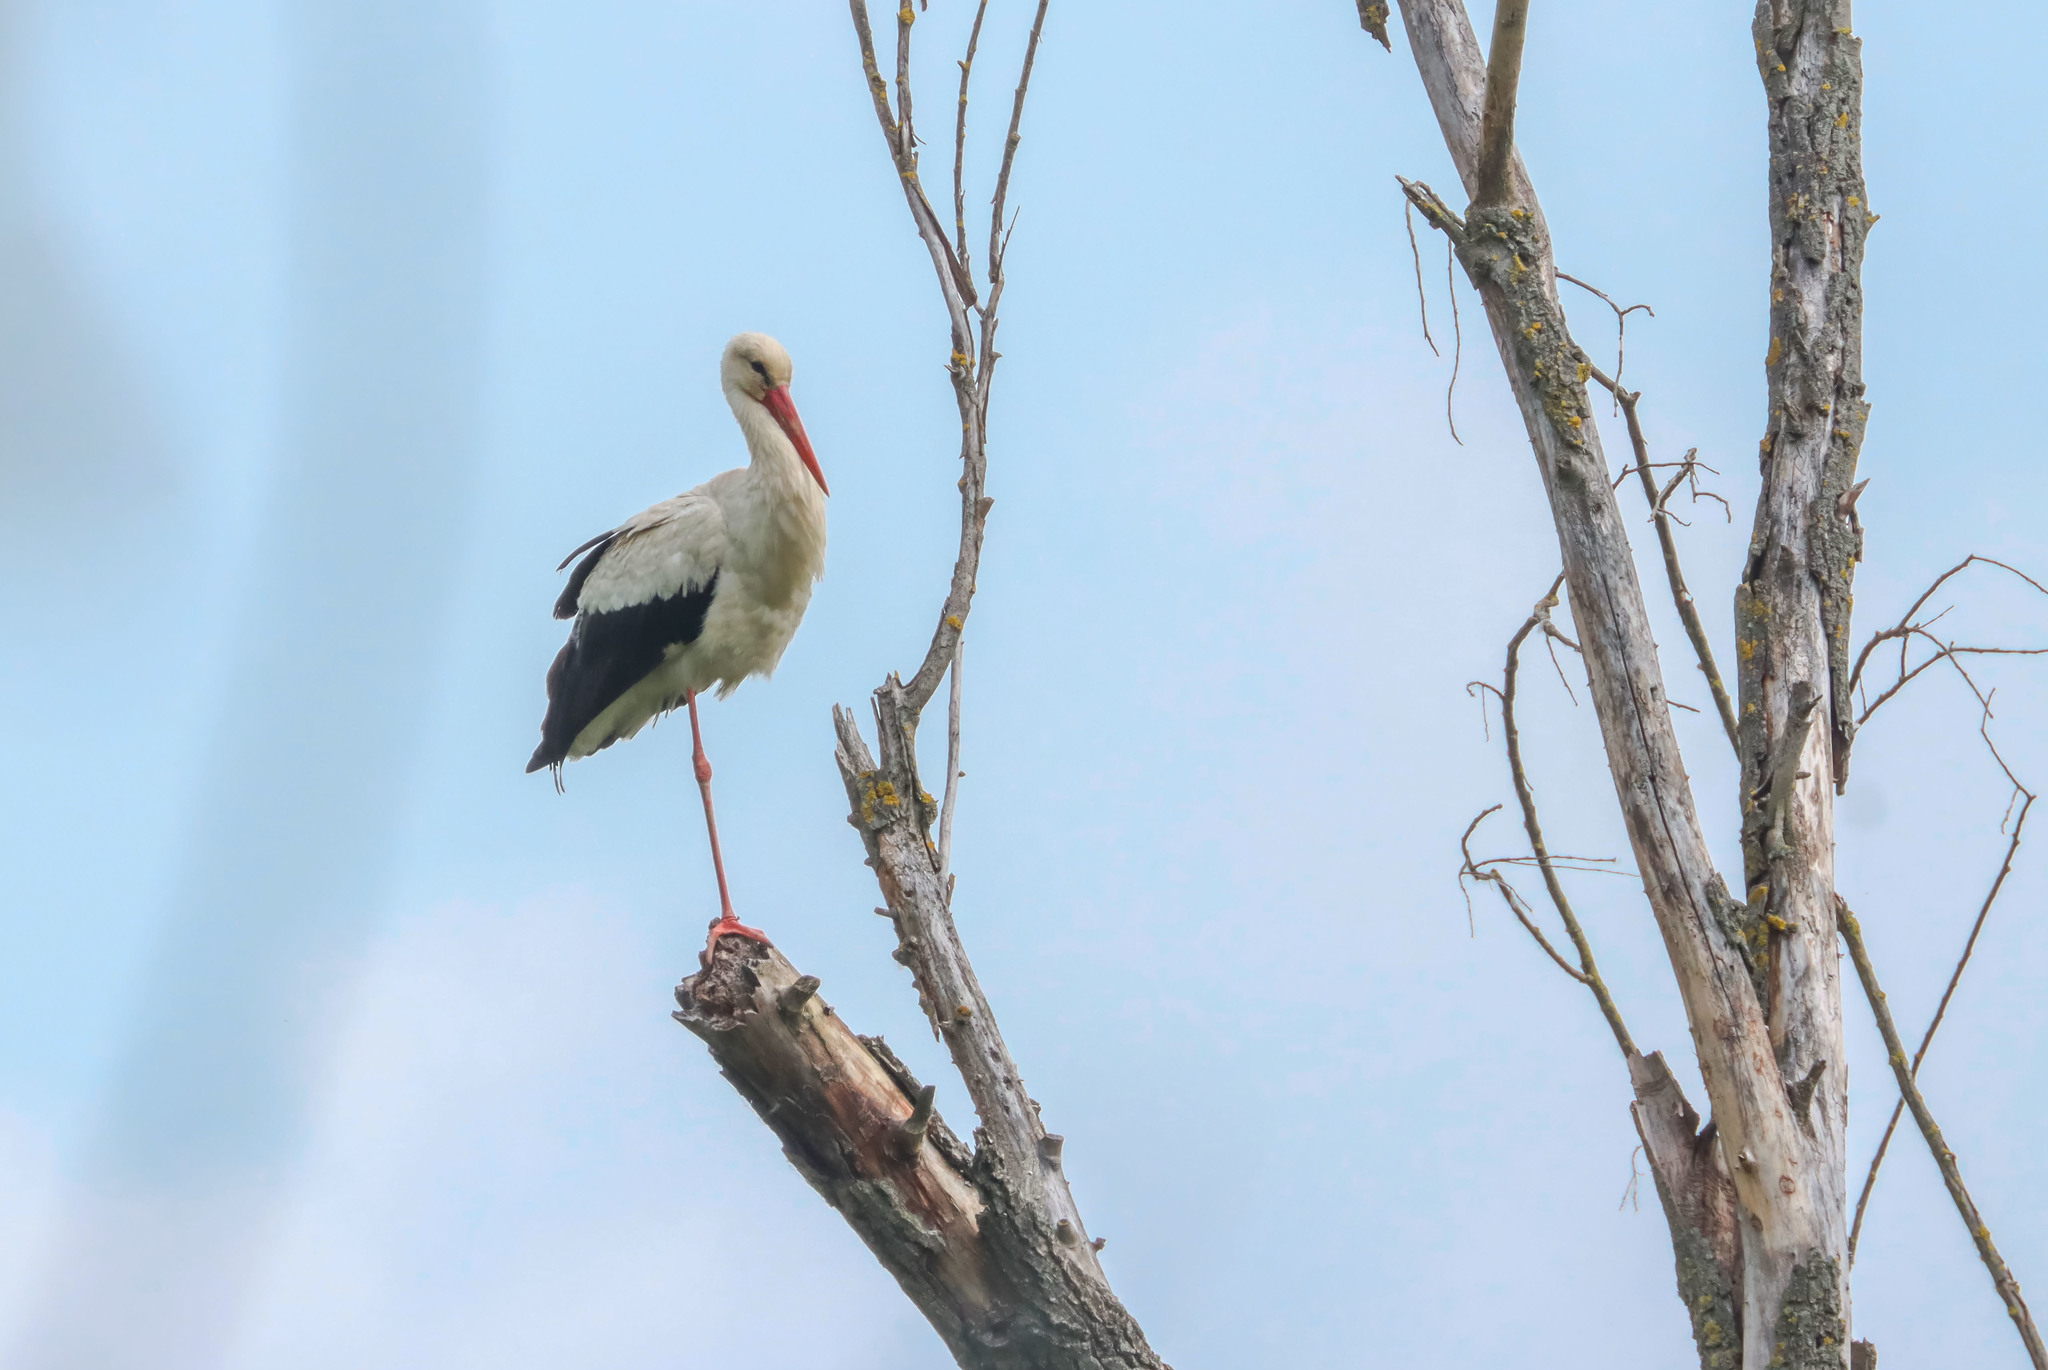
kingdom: Animalia
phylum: Chordata
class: Aves
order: Ciconiiformes
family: Ciconiidae
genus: Ciconia
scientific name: Ciconia ciconia
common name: White stork
